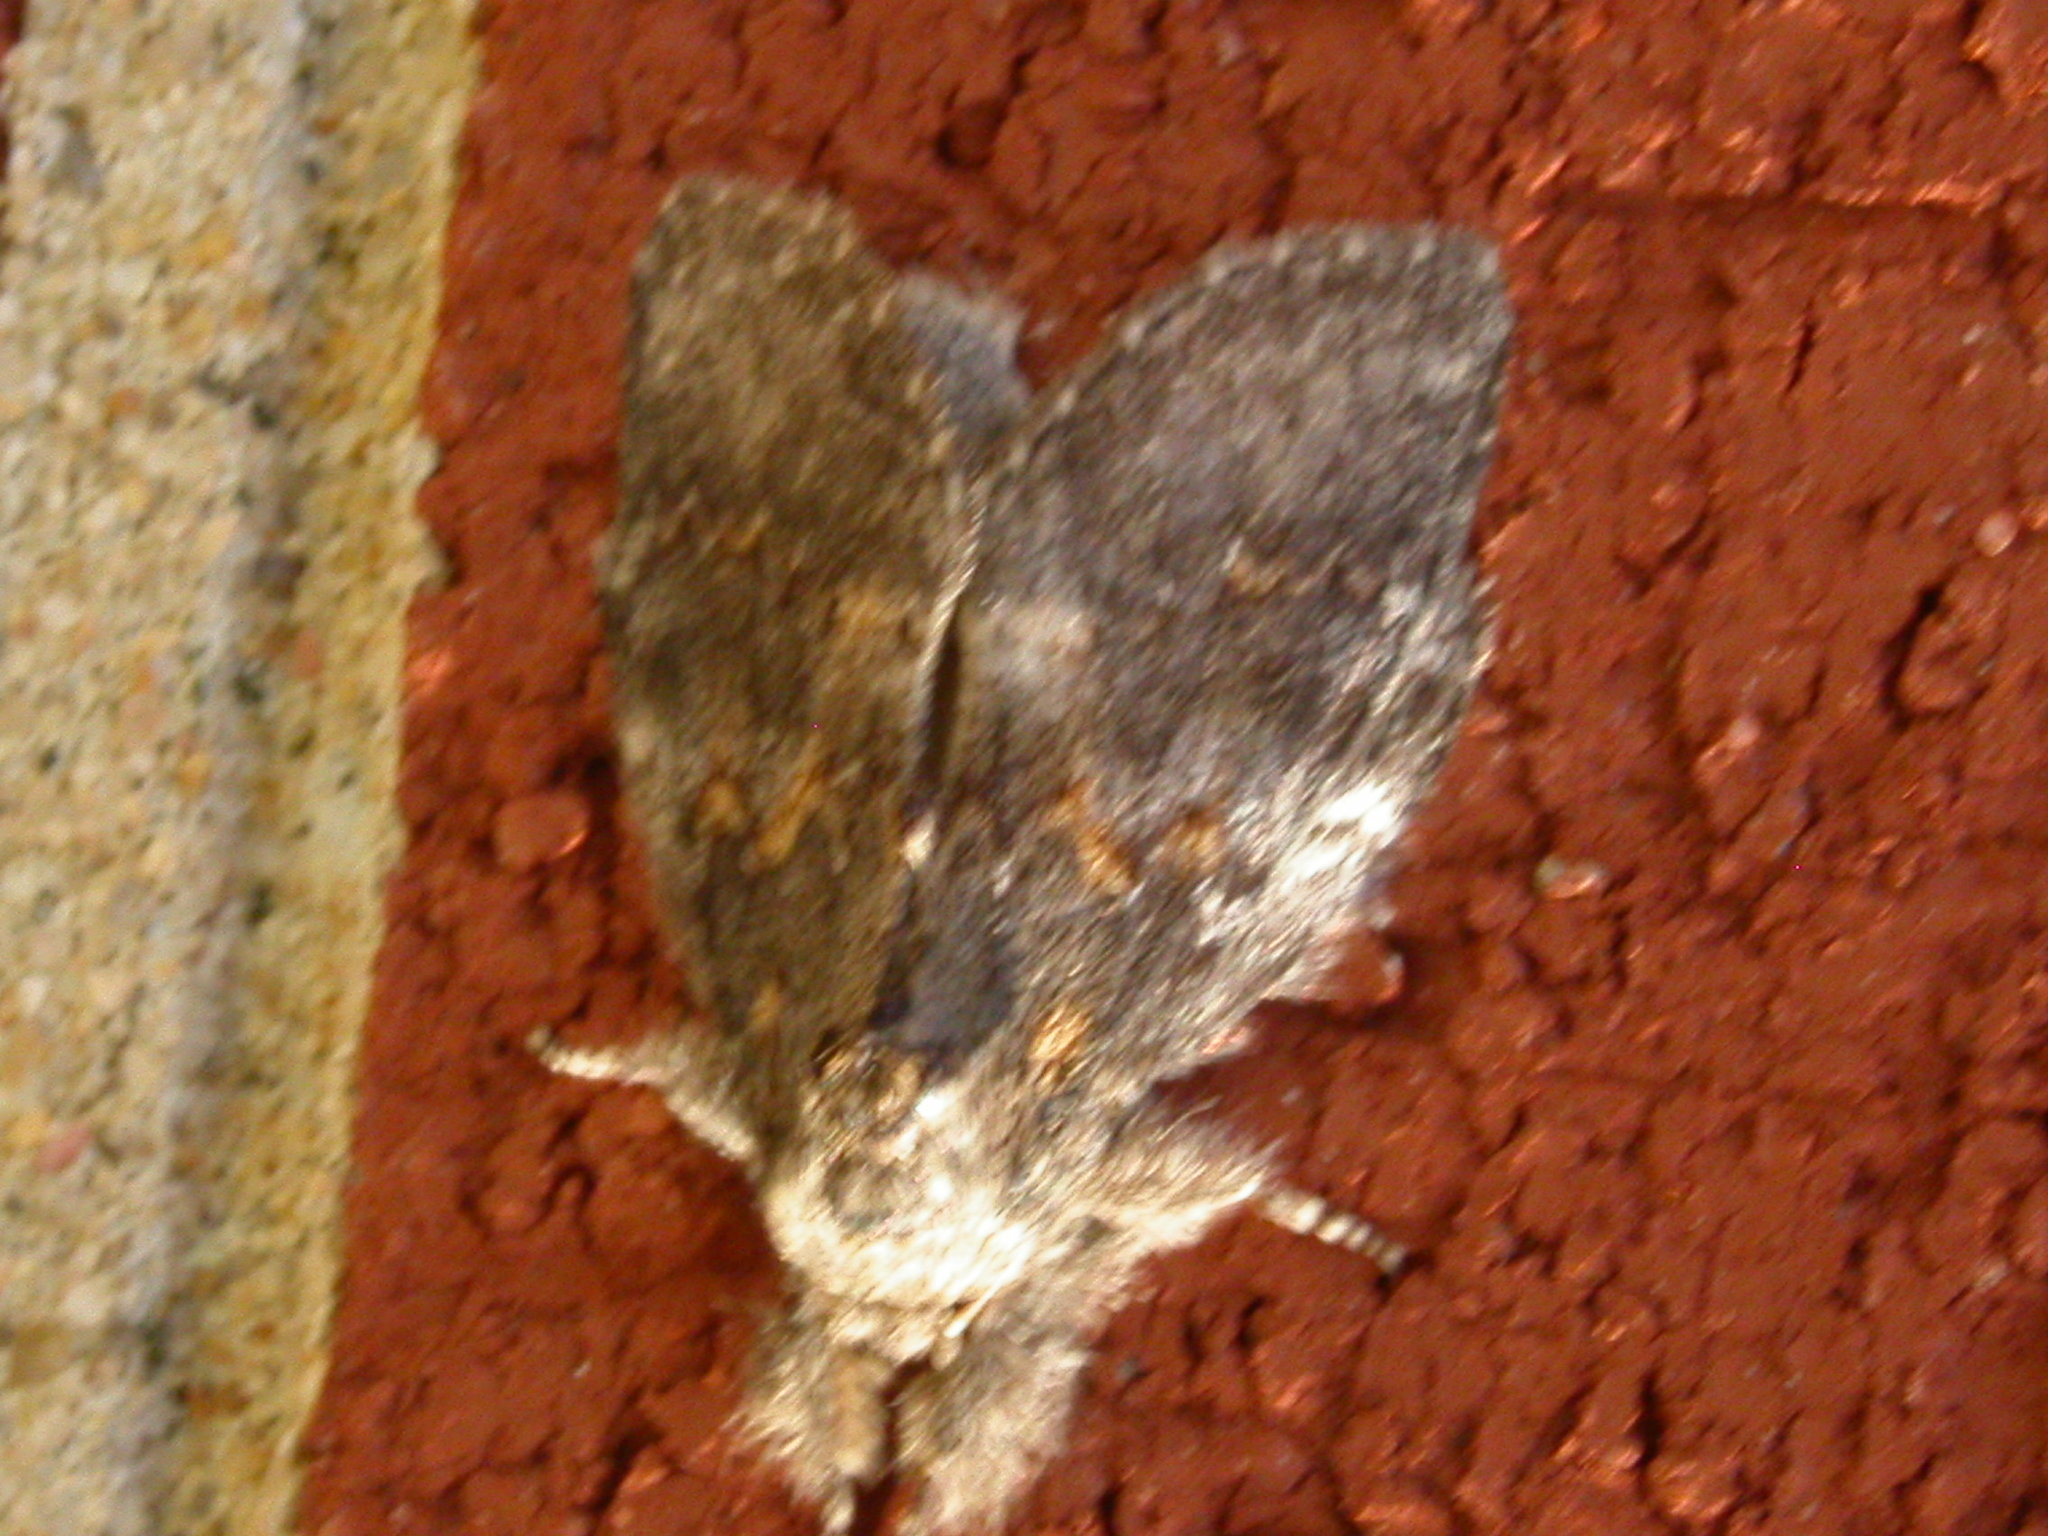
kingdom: Animalia
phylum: Arthropoda
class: Insecta
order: Lepidoptera
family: Notodontidae
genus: Peridea
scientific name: Peridea angulosa
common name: Angulose prominent
